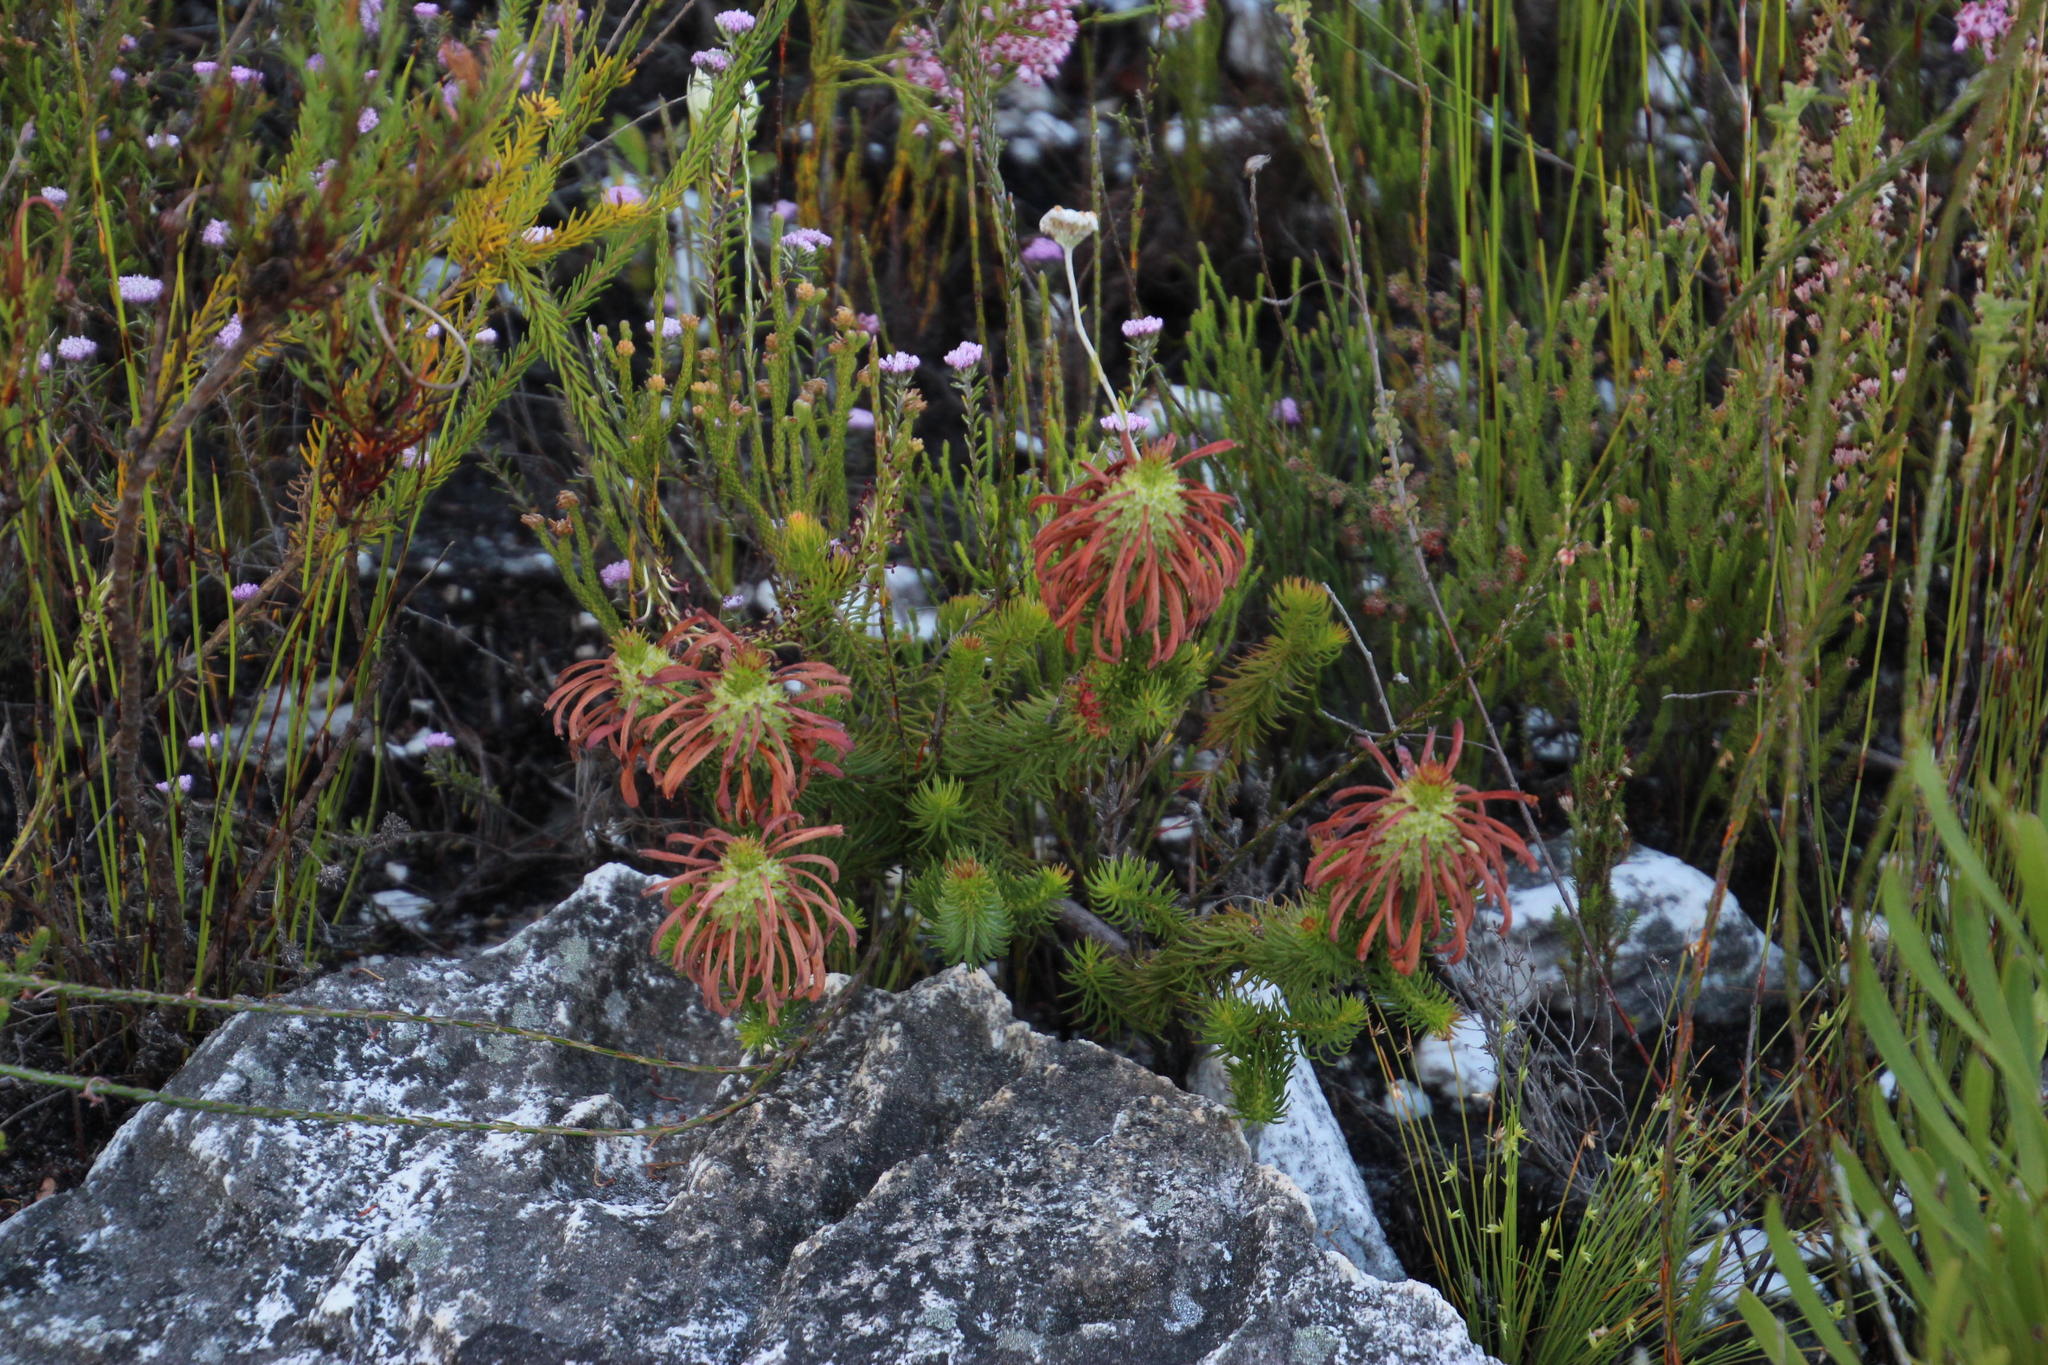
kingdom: Plantae
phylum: Tracheophyta
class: Magnoliopsida
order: Ericales
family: Ericaceae
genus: Erica
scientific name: Erica sessiliflora
